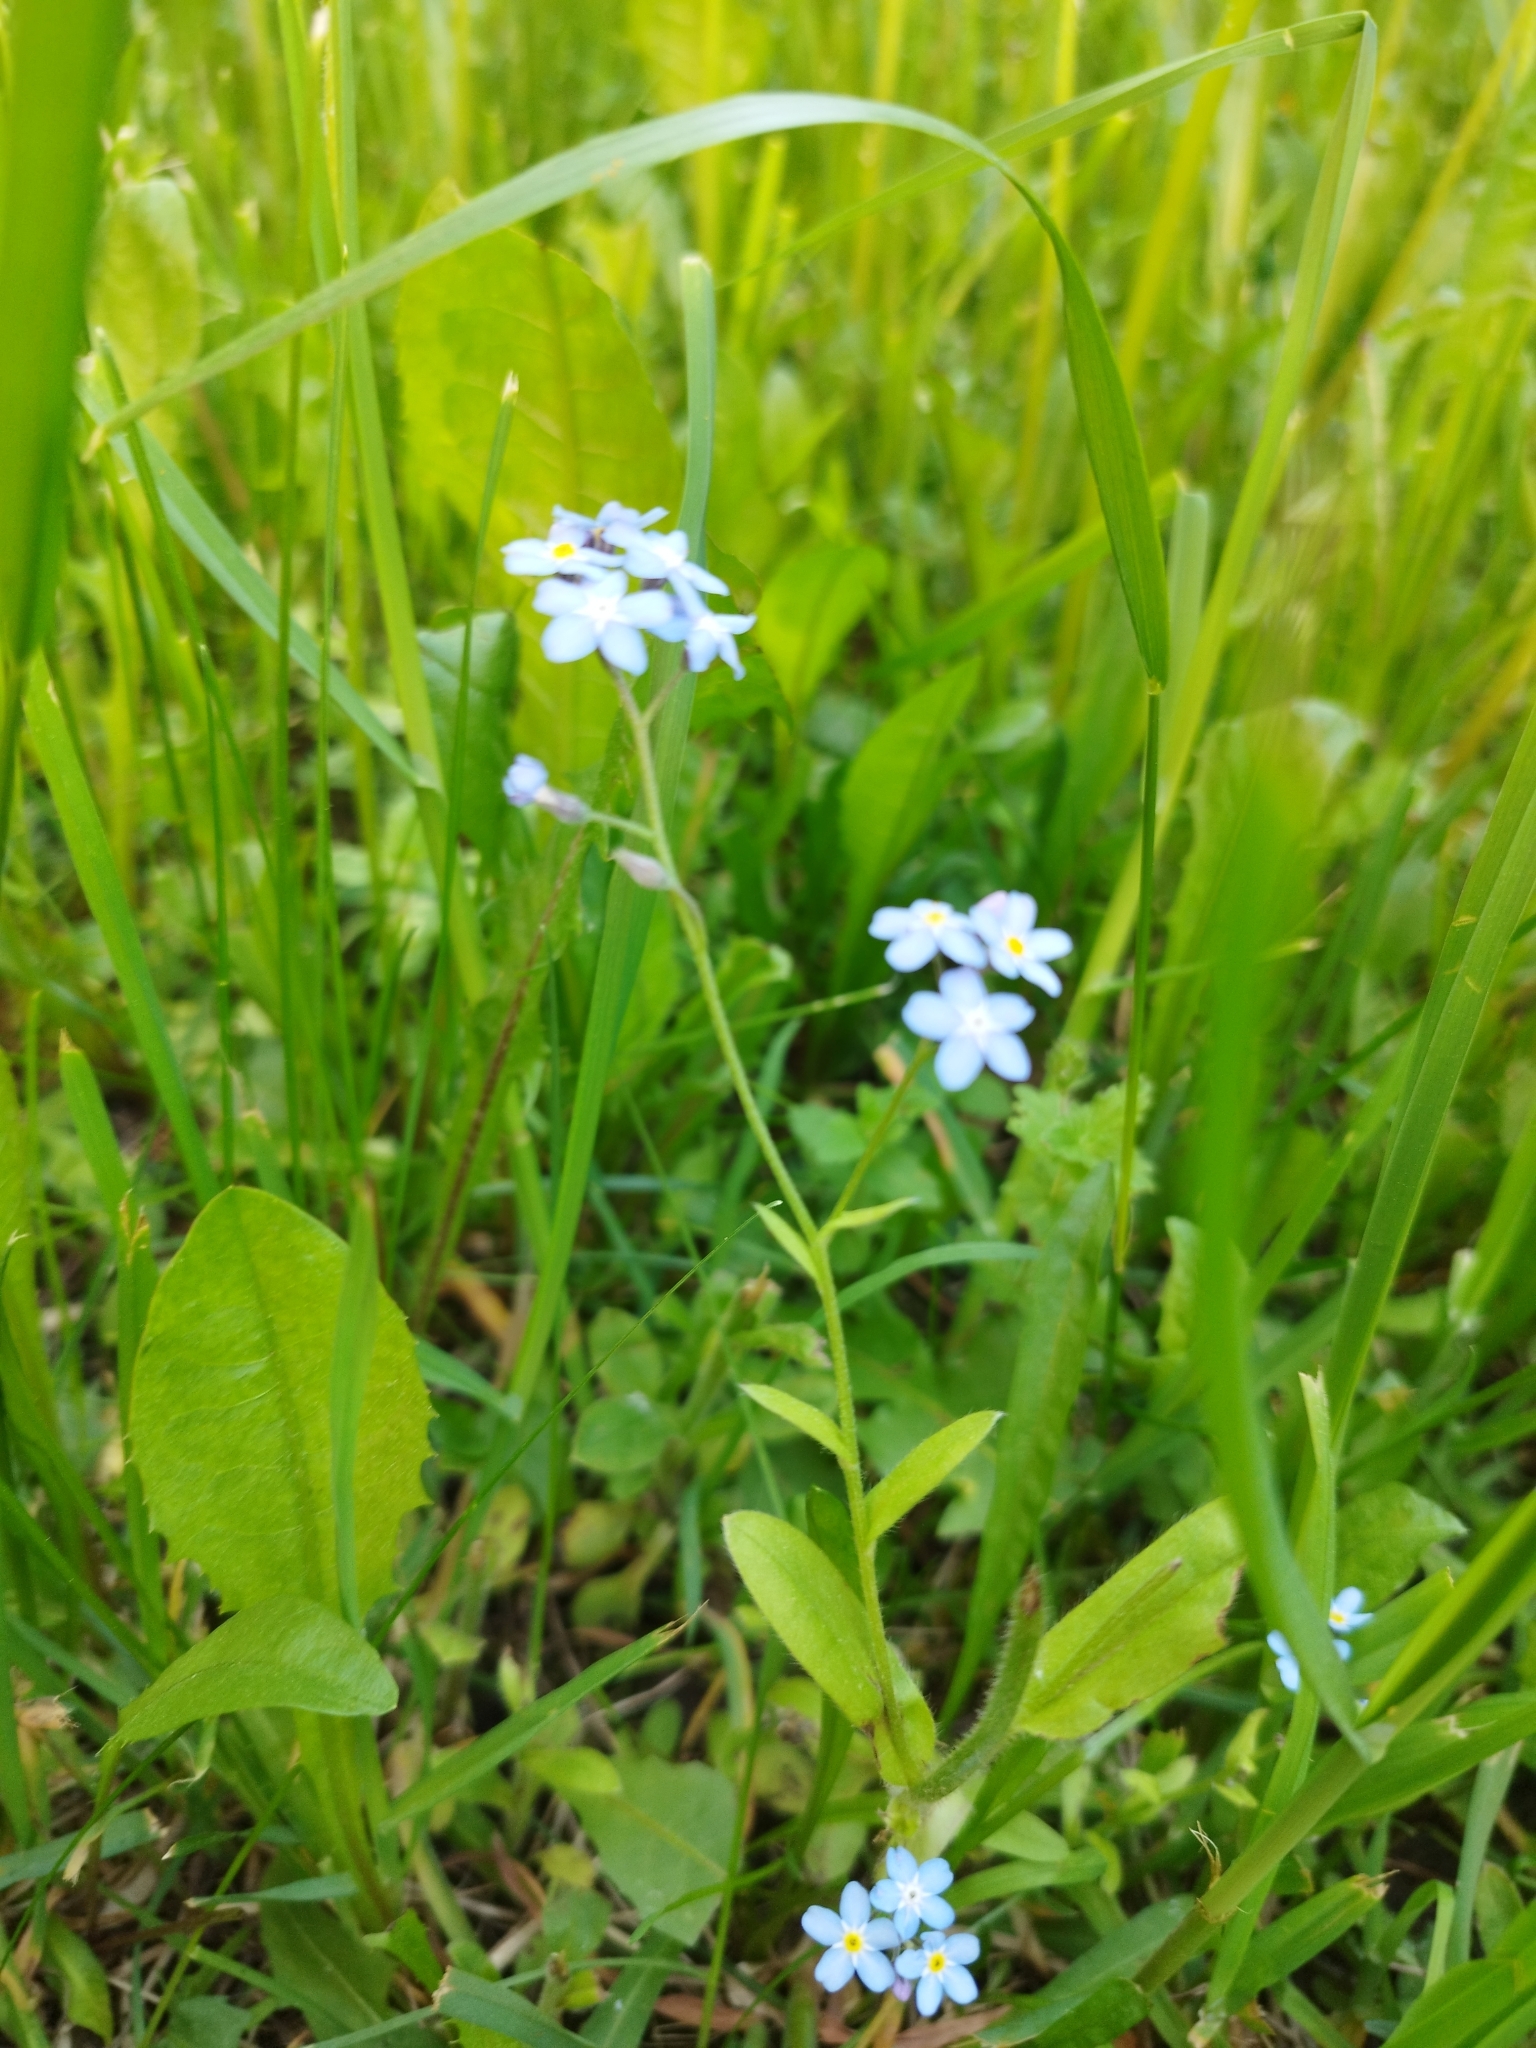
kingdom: Plantae
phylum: Tracheophyta
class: Magnoliopsida
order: Boraginales
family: Boraginaceae
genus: Myosotis
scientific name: Myosotis sylvatica
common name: Wood forget-me-not
